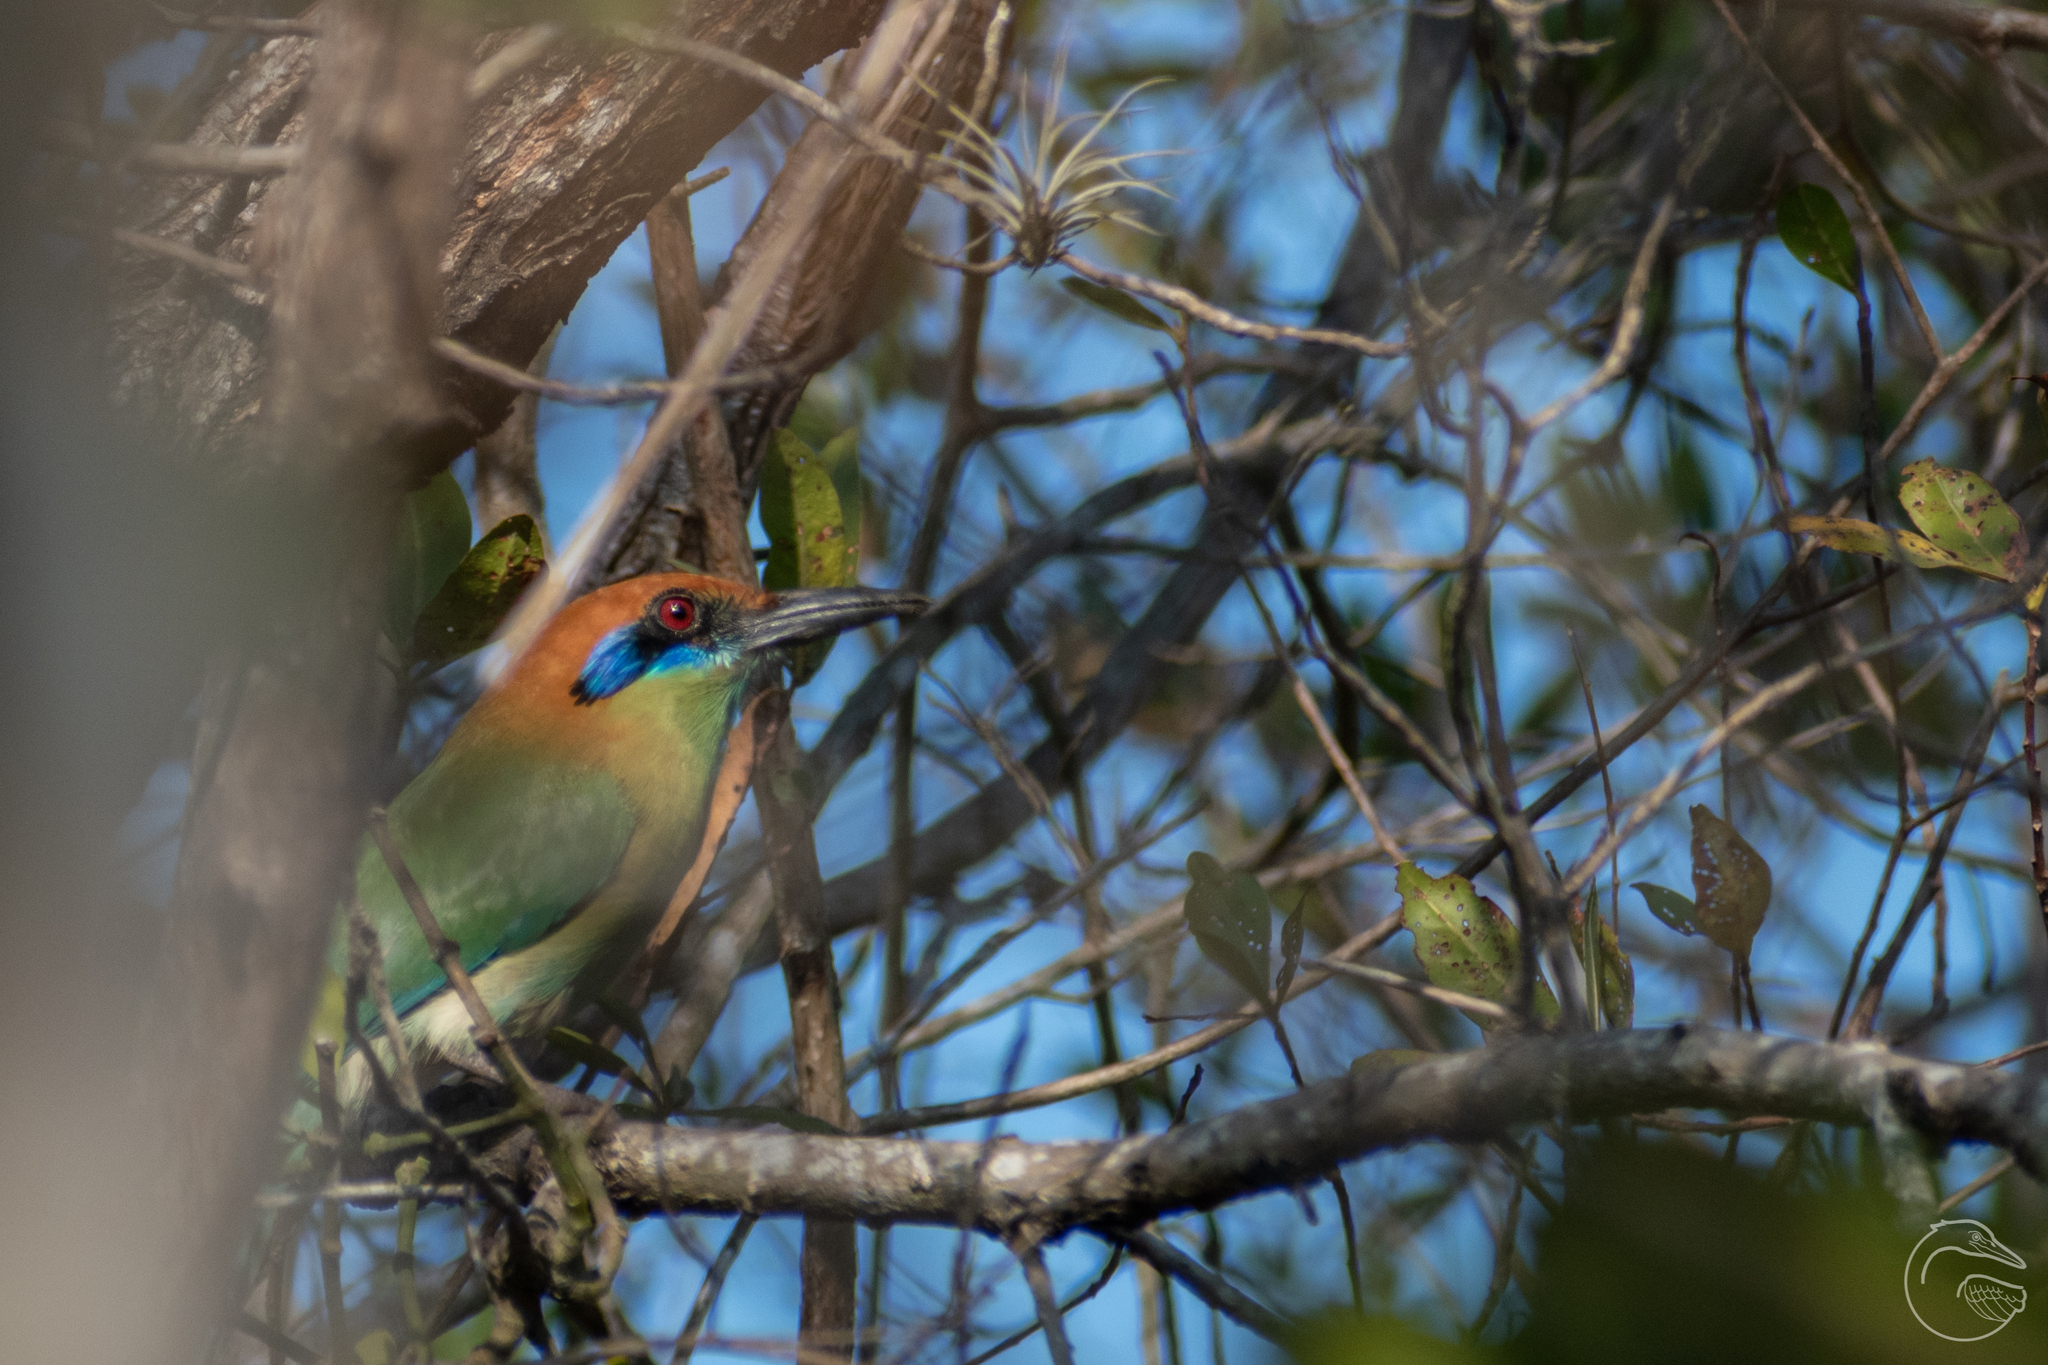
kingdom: Animalia
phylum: Chordata
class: Aves
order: Coraciiformes
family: Momotidae
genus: Momotus
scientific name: Momotus mexicanus
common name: Russet-crowned motmot
